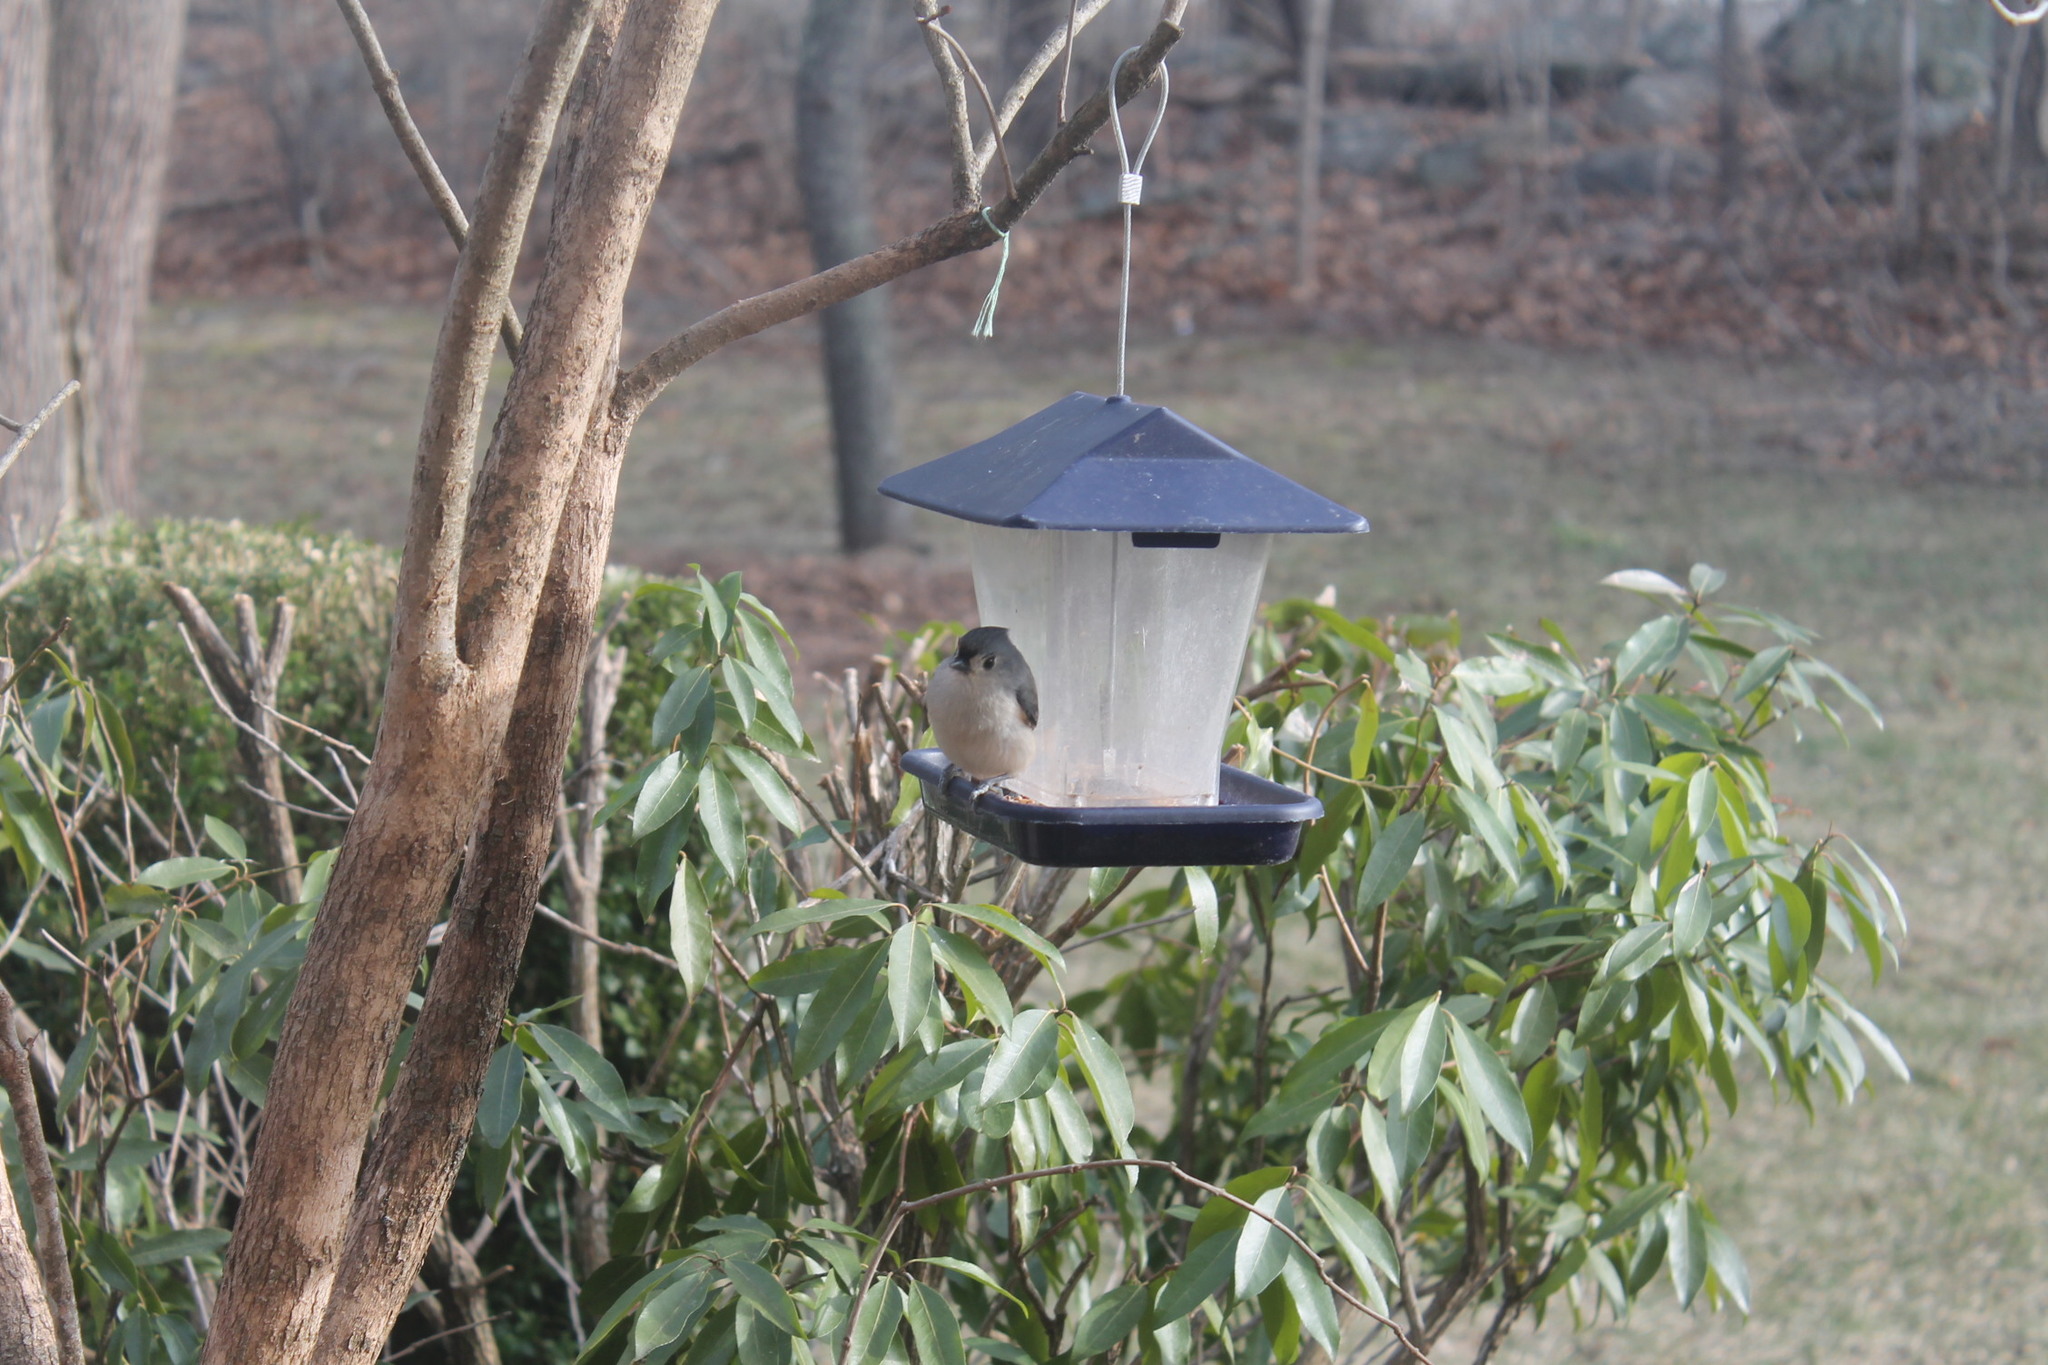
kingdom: Animalia
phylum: Chordata
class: Aves
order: Passeriformes
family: Paridae
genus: Baeolophus
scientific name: Baeolophus bicolor
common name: Tufted titmouse
